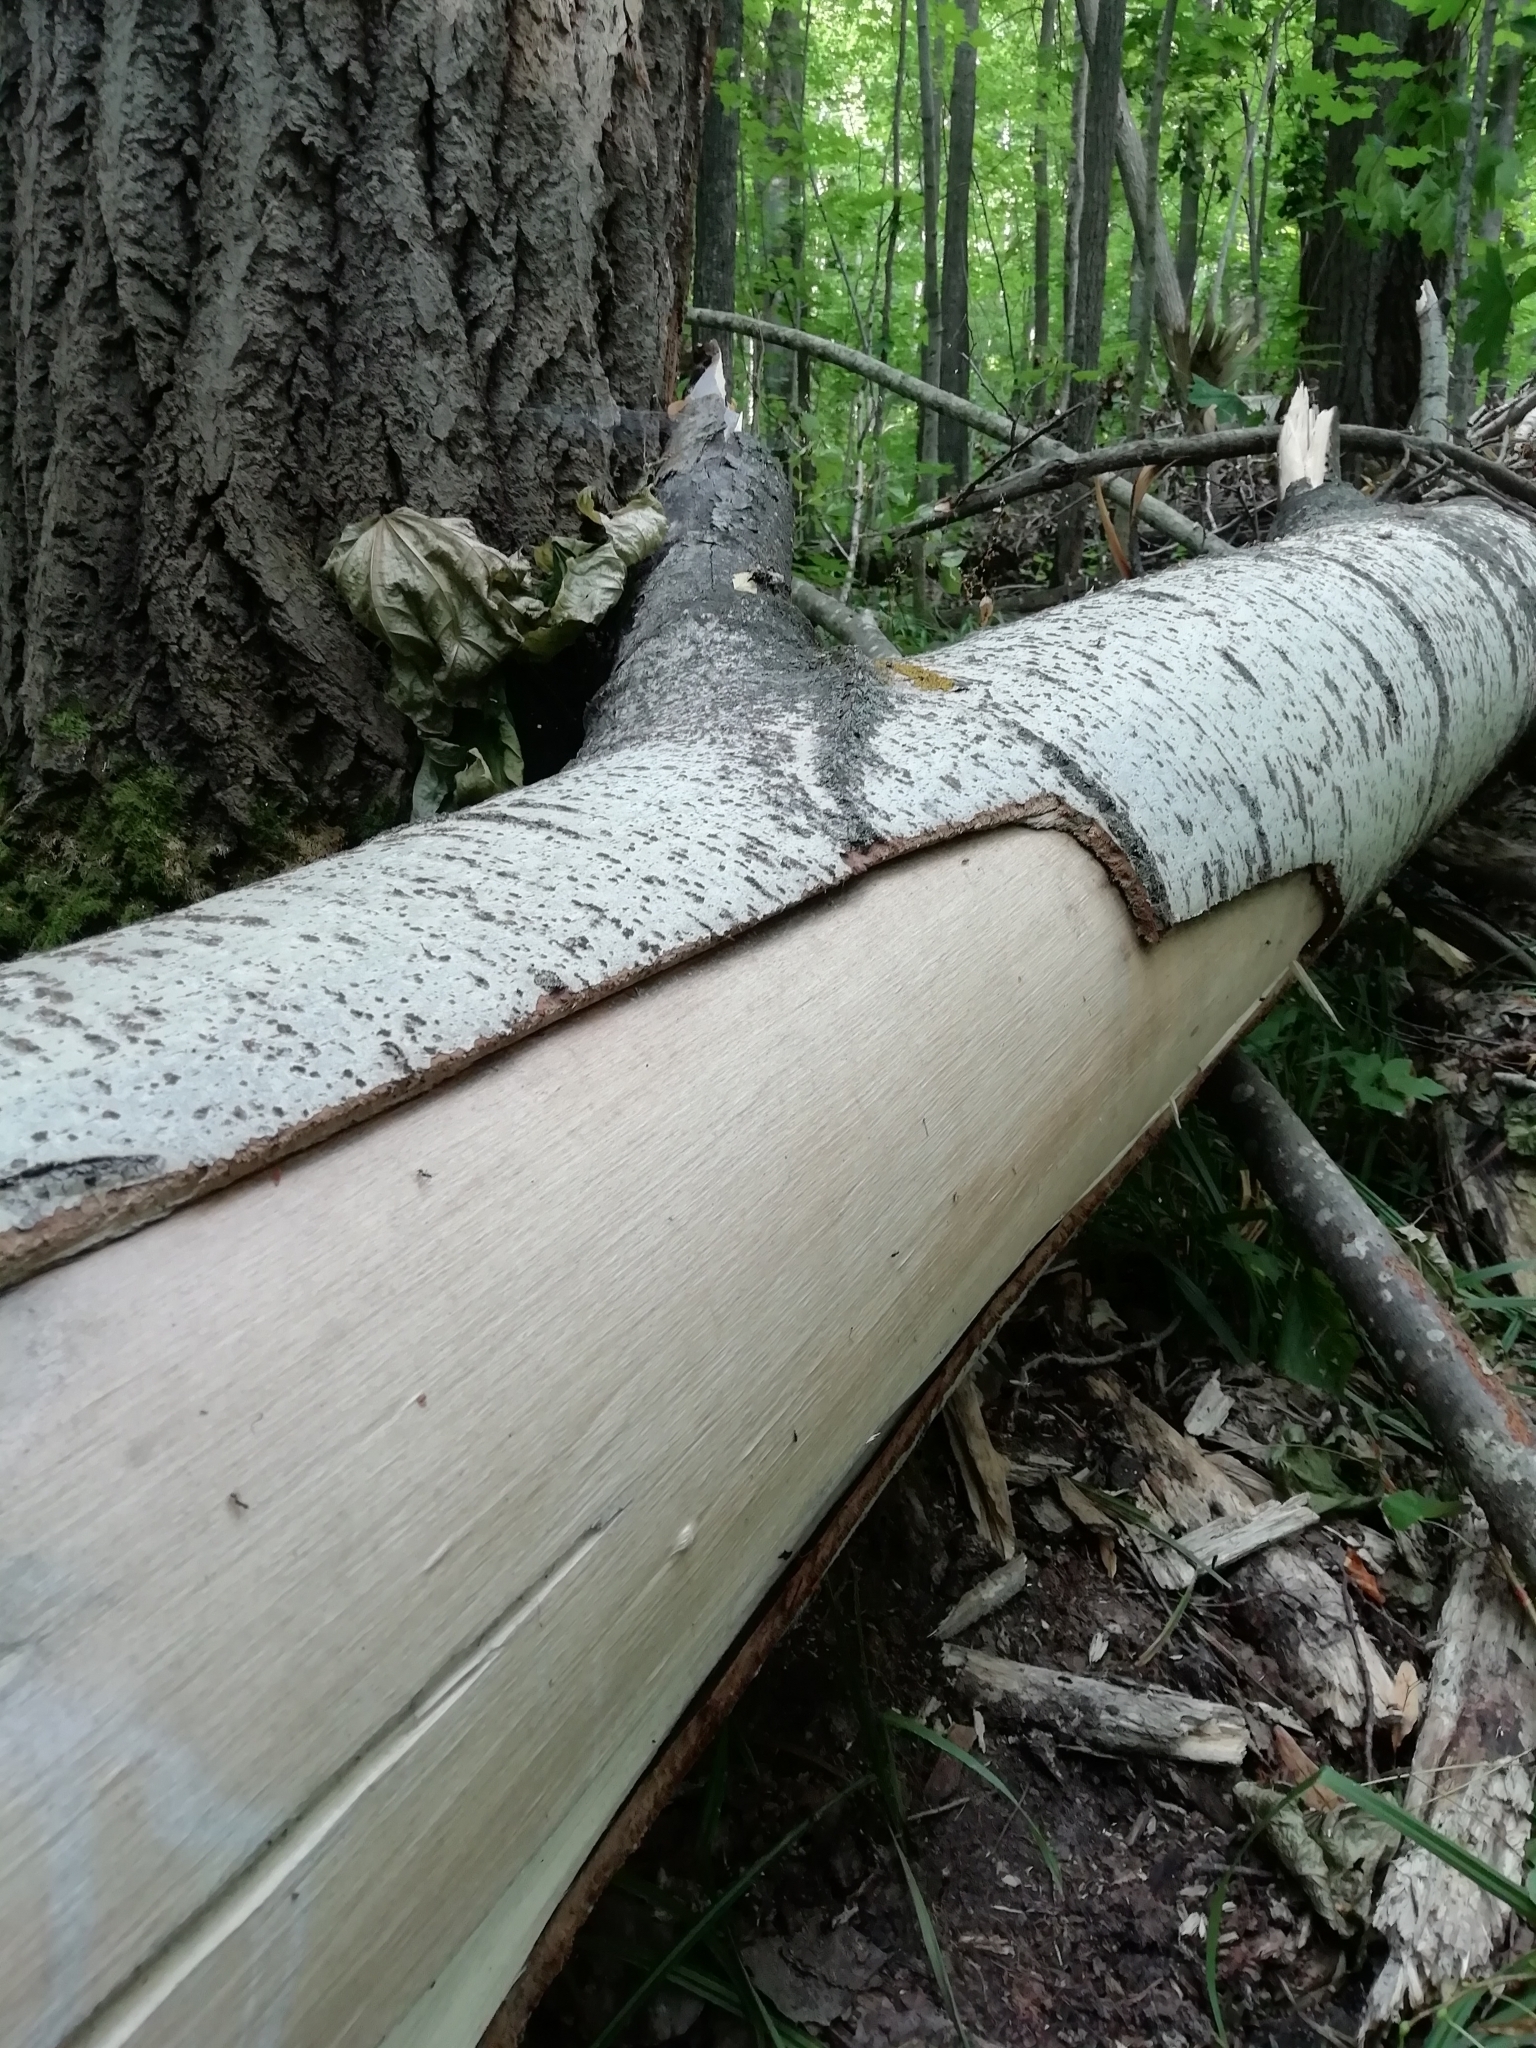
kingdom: Plantae
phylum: Tracheophyta
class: Magnoliopsida
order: Malpighiales
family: Salicaceae
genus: Populus
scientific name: Populus tremula
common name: European aspen
